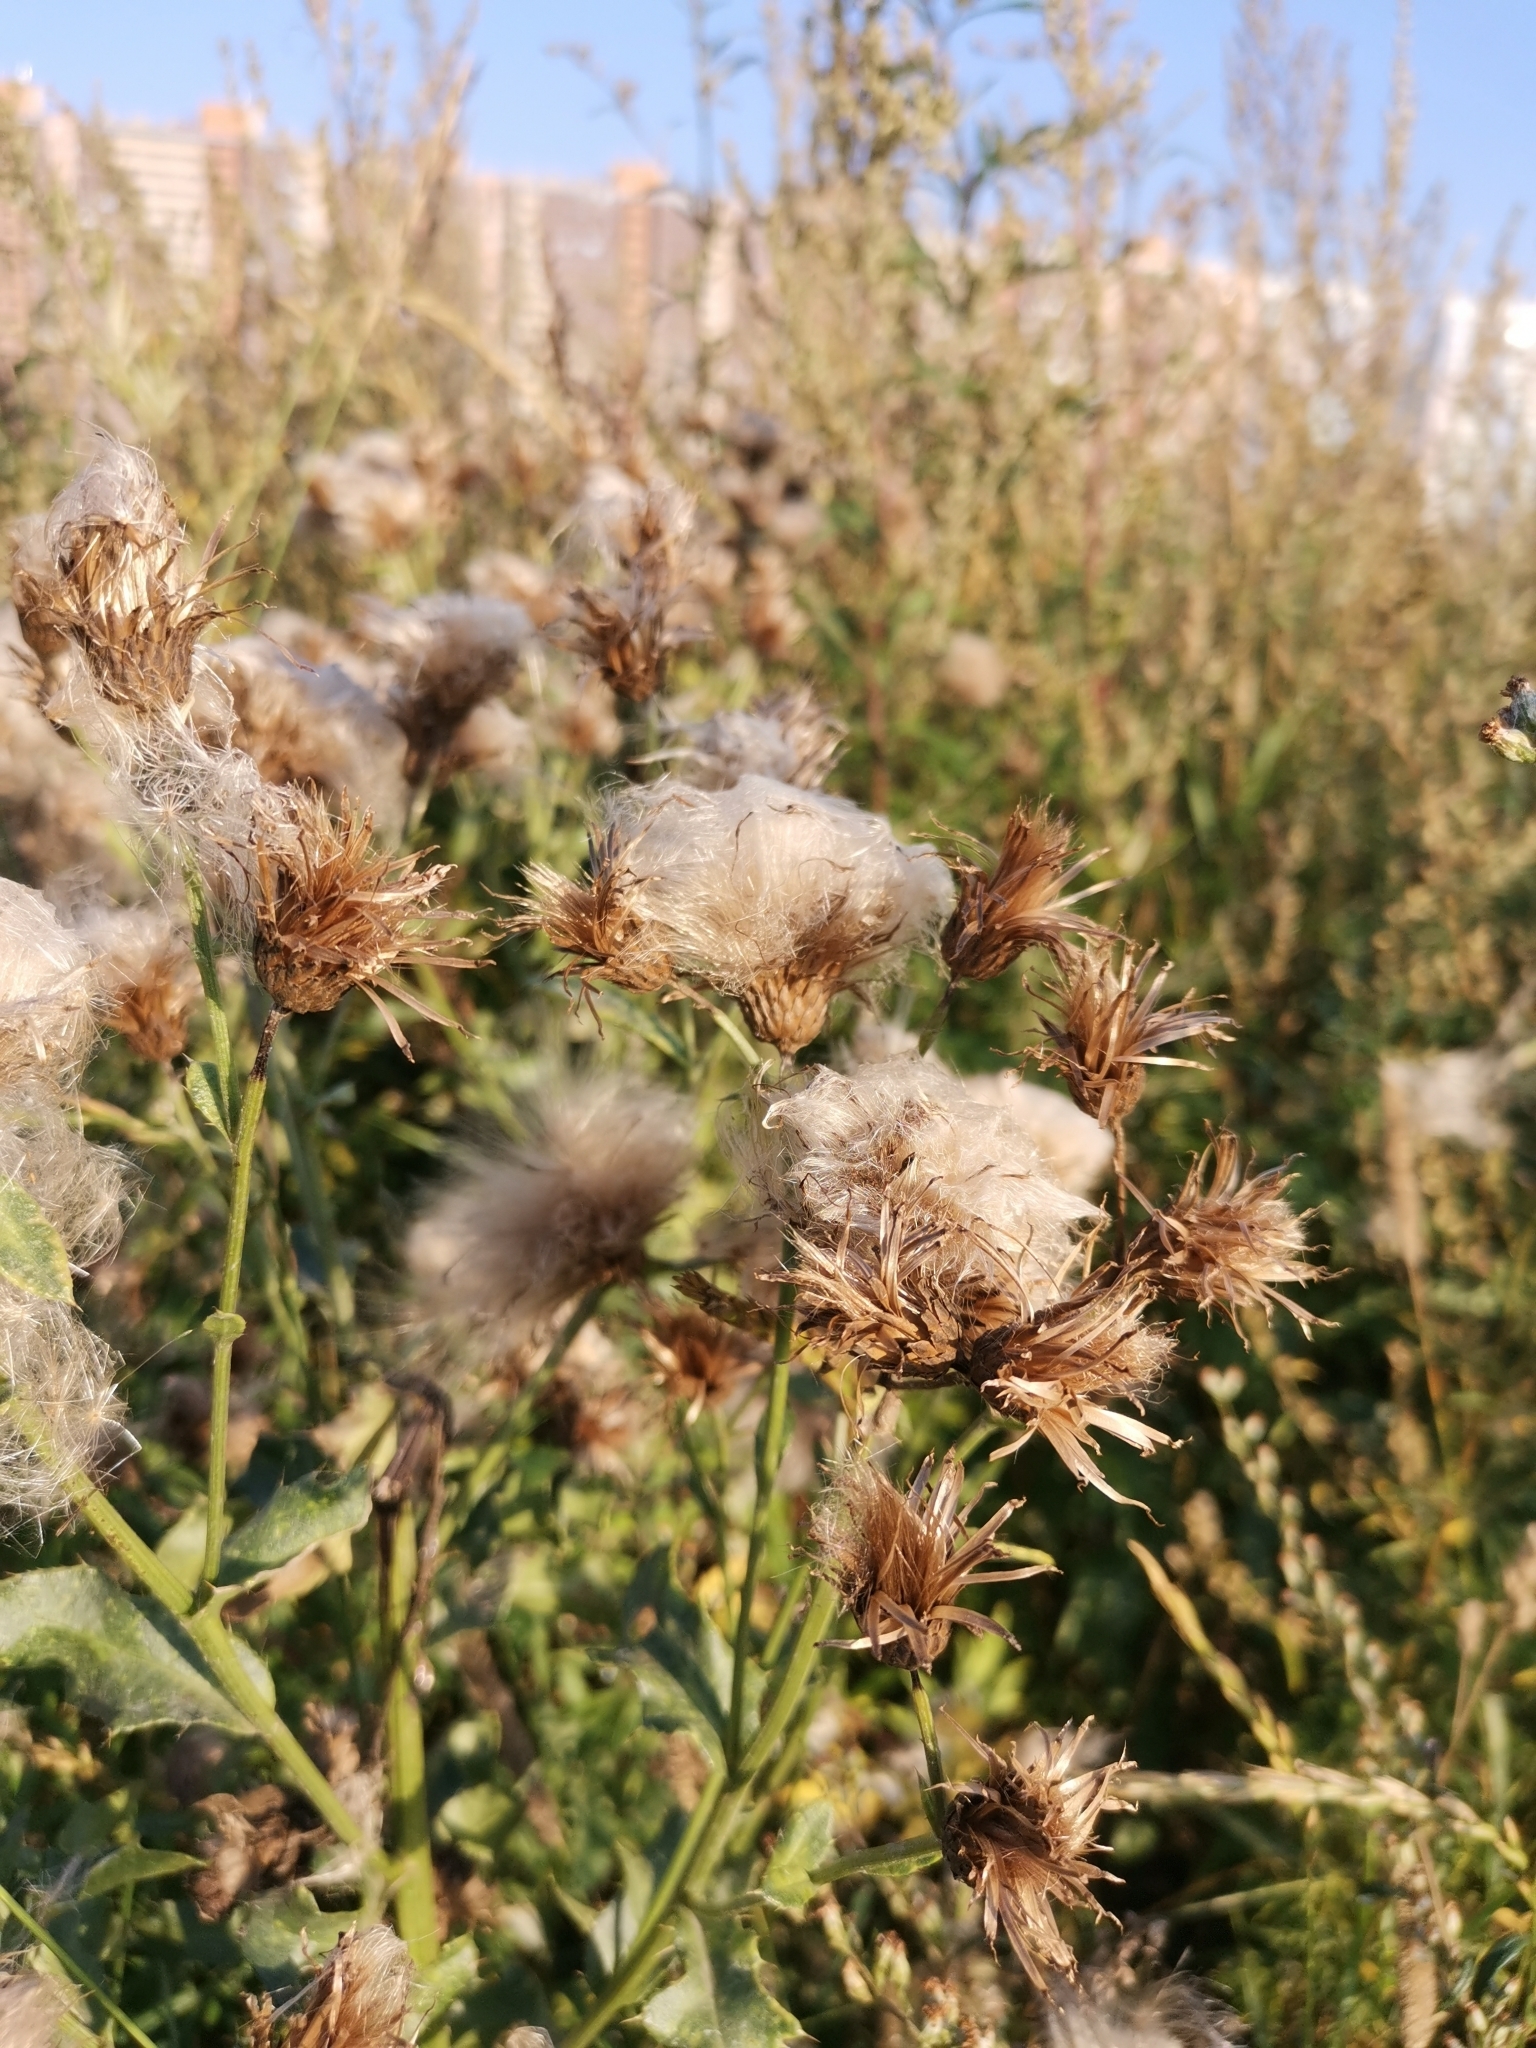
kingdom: Plantae
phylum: Tracheophyta
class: Magnoliopsida
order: Asterales
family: Asteraceae
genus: Cirsium
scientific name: Cirsium arvense
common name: Creeping thistle
